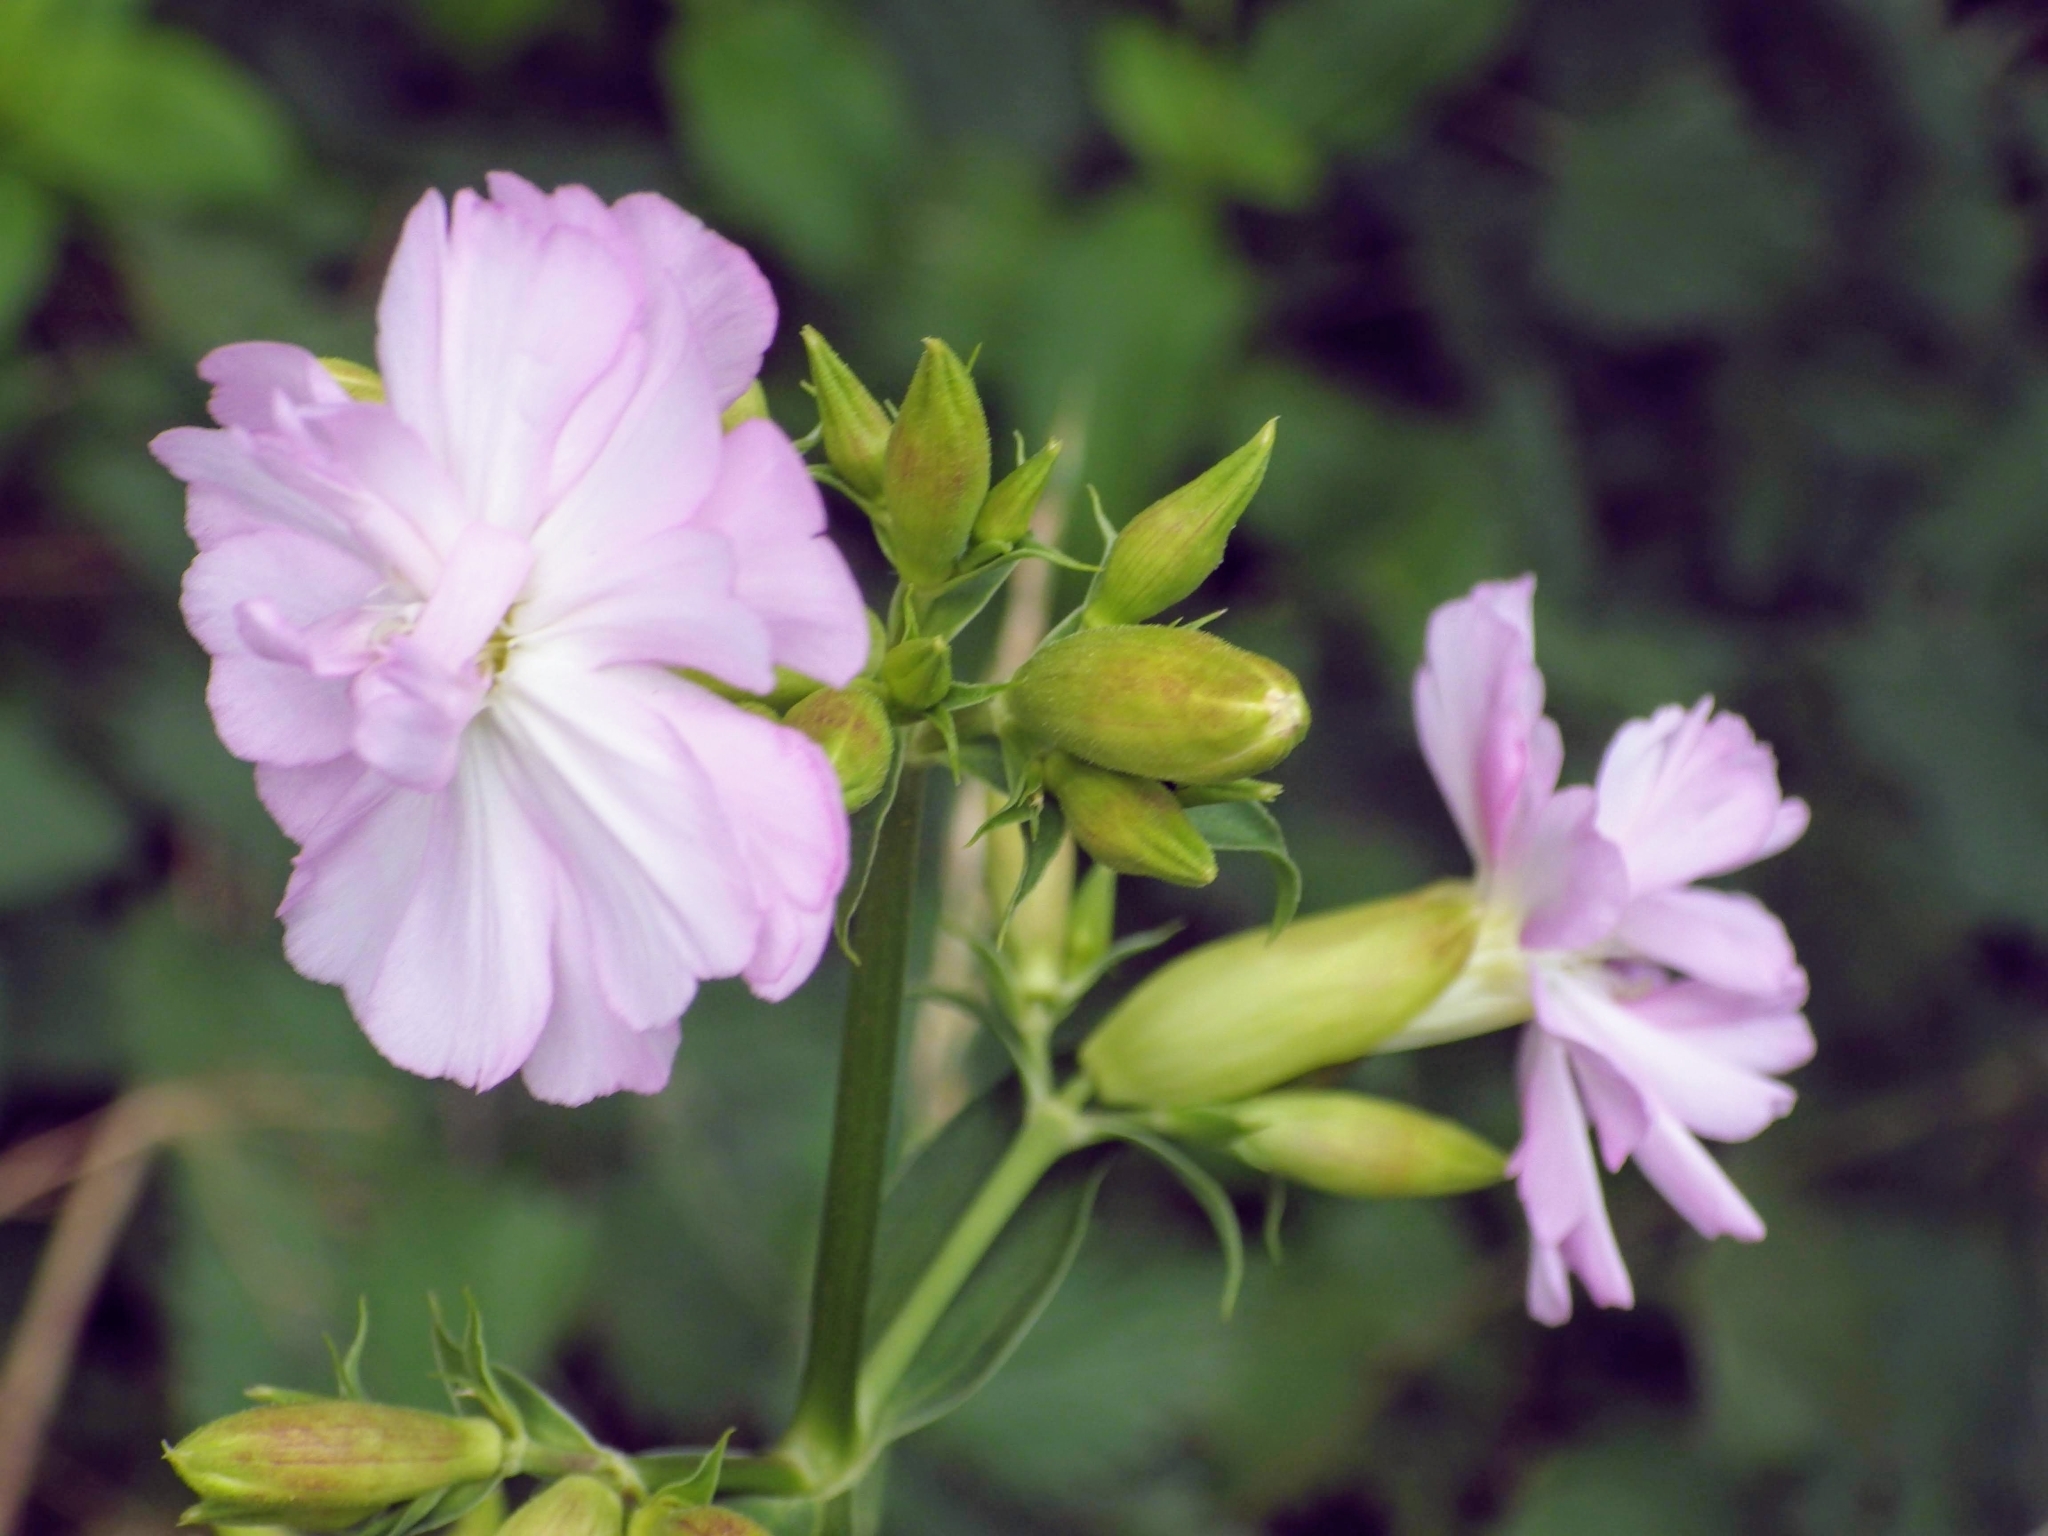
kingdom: Plantae
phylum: Tracheophyta
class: Magnoliopsida
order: Caryophyllales
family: Caryophyllaceae
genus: Saponaria
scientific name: Saponaria officinalis
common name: Soapwort
